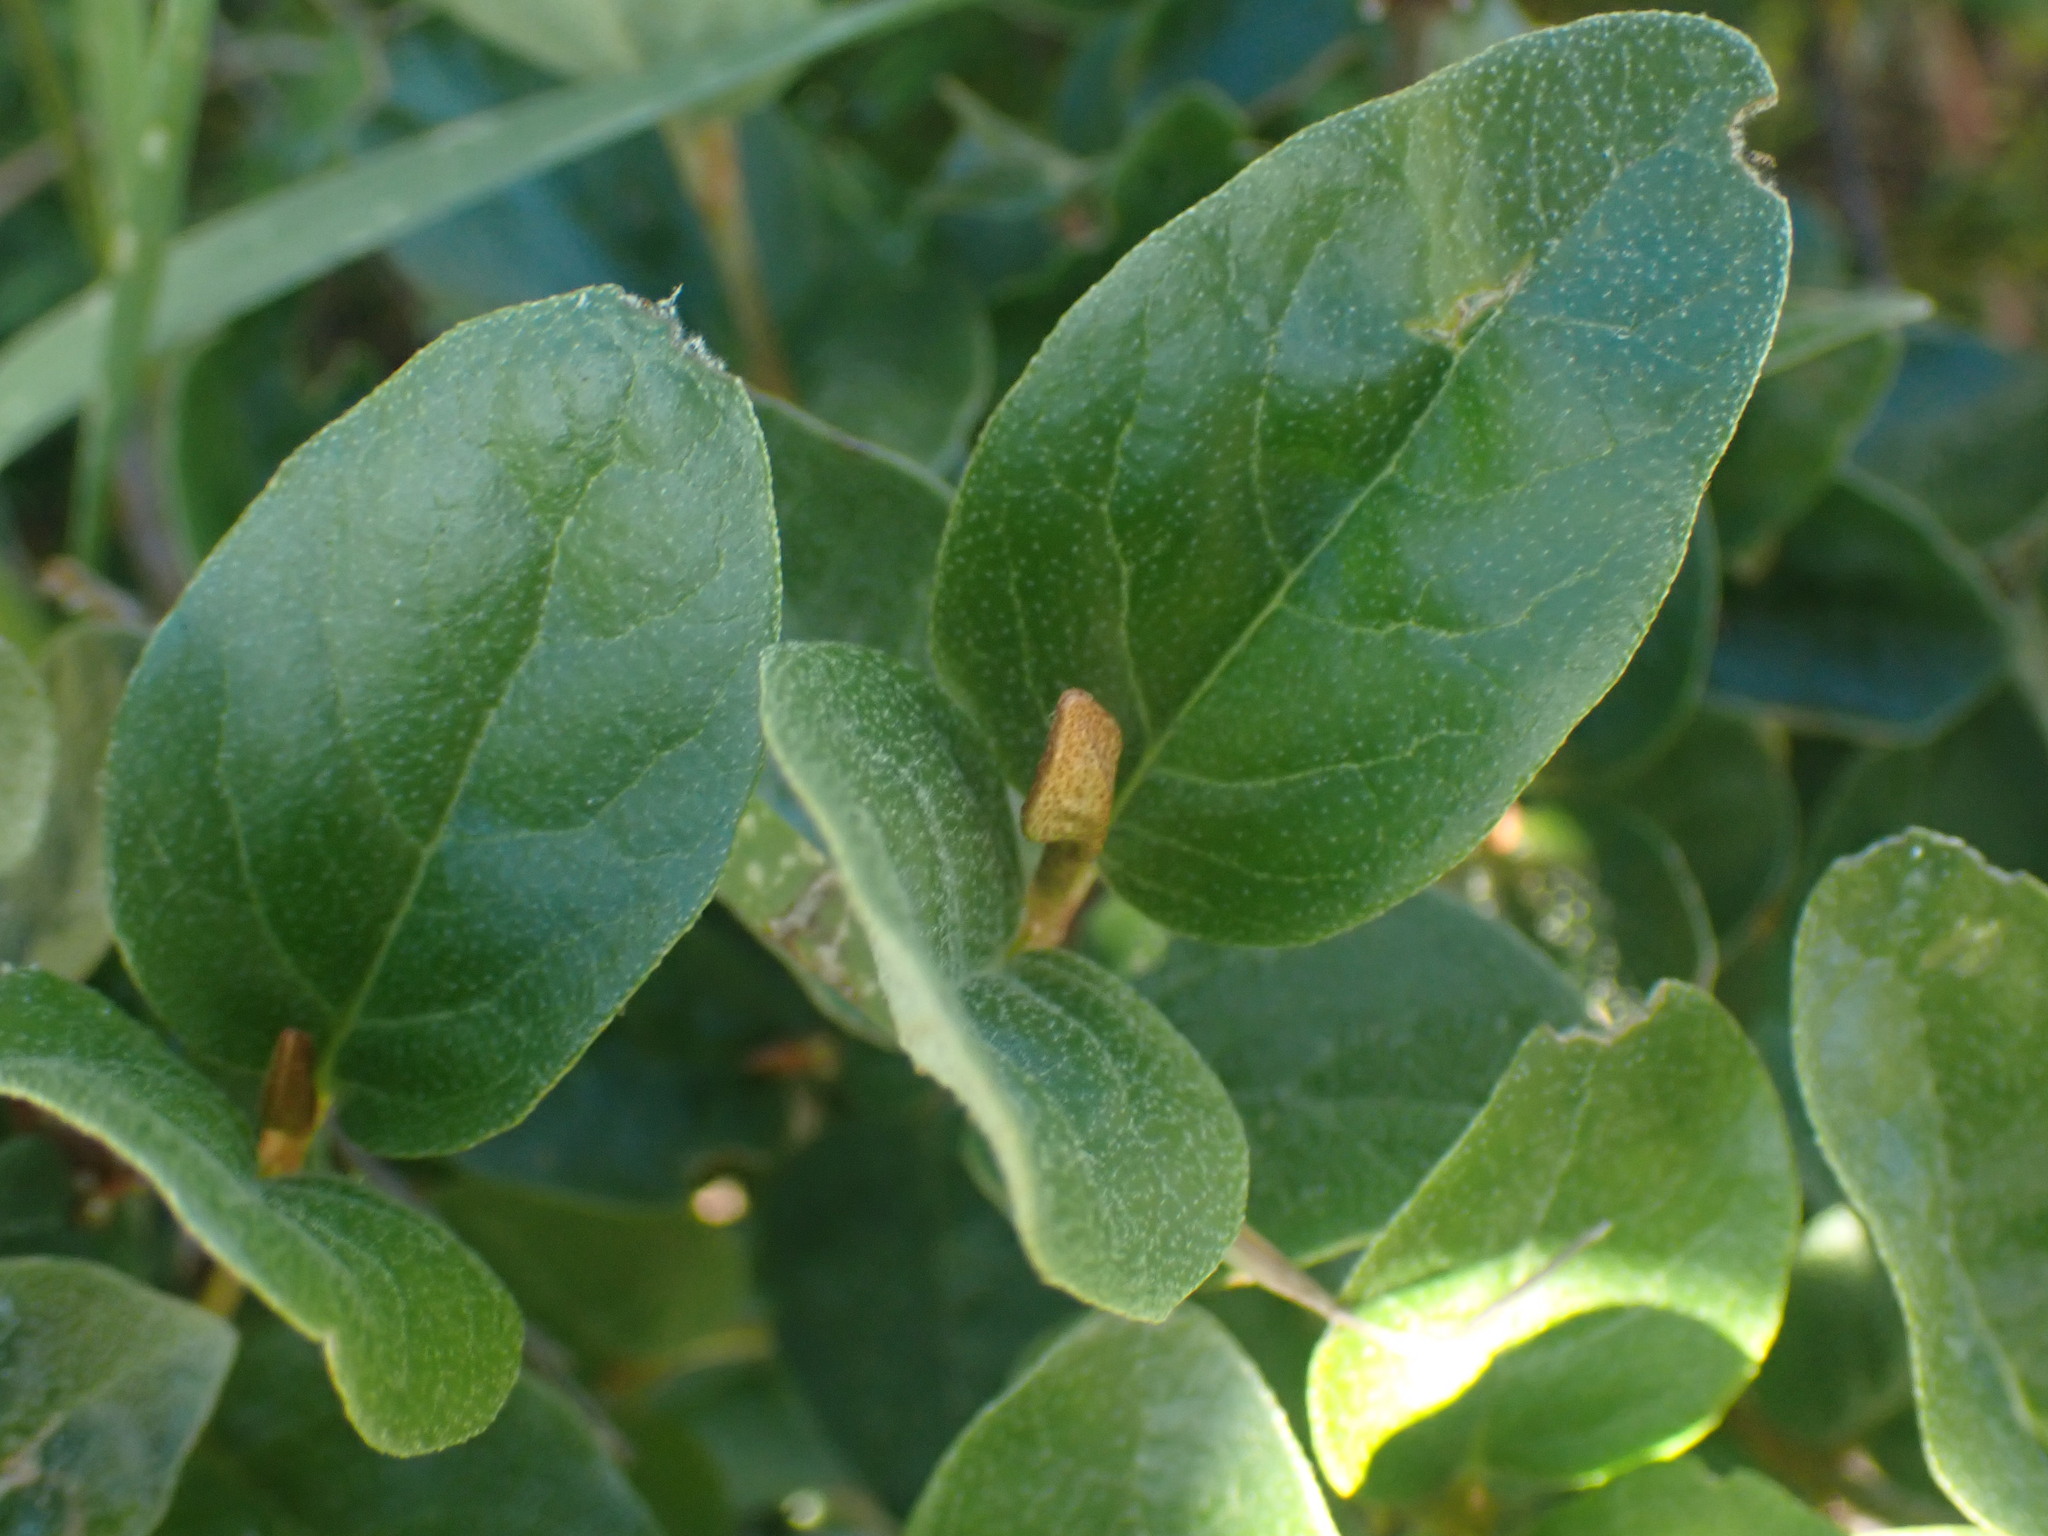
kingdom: Plantae
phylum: Tracheophyta
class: Magnoliopsida
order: Rosales
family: Elaeagnaceae
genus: Shepherdia
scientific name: Shepherdia canadensis
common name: Soapberry
